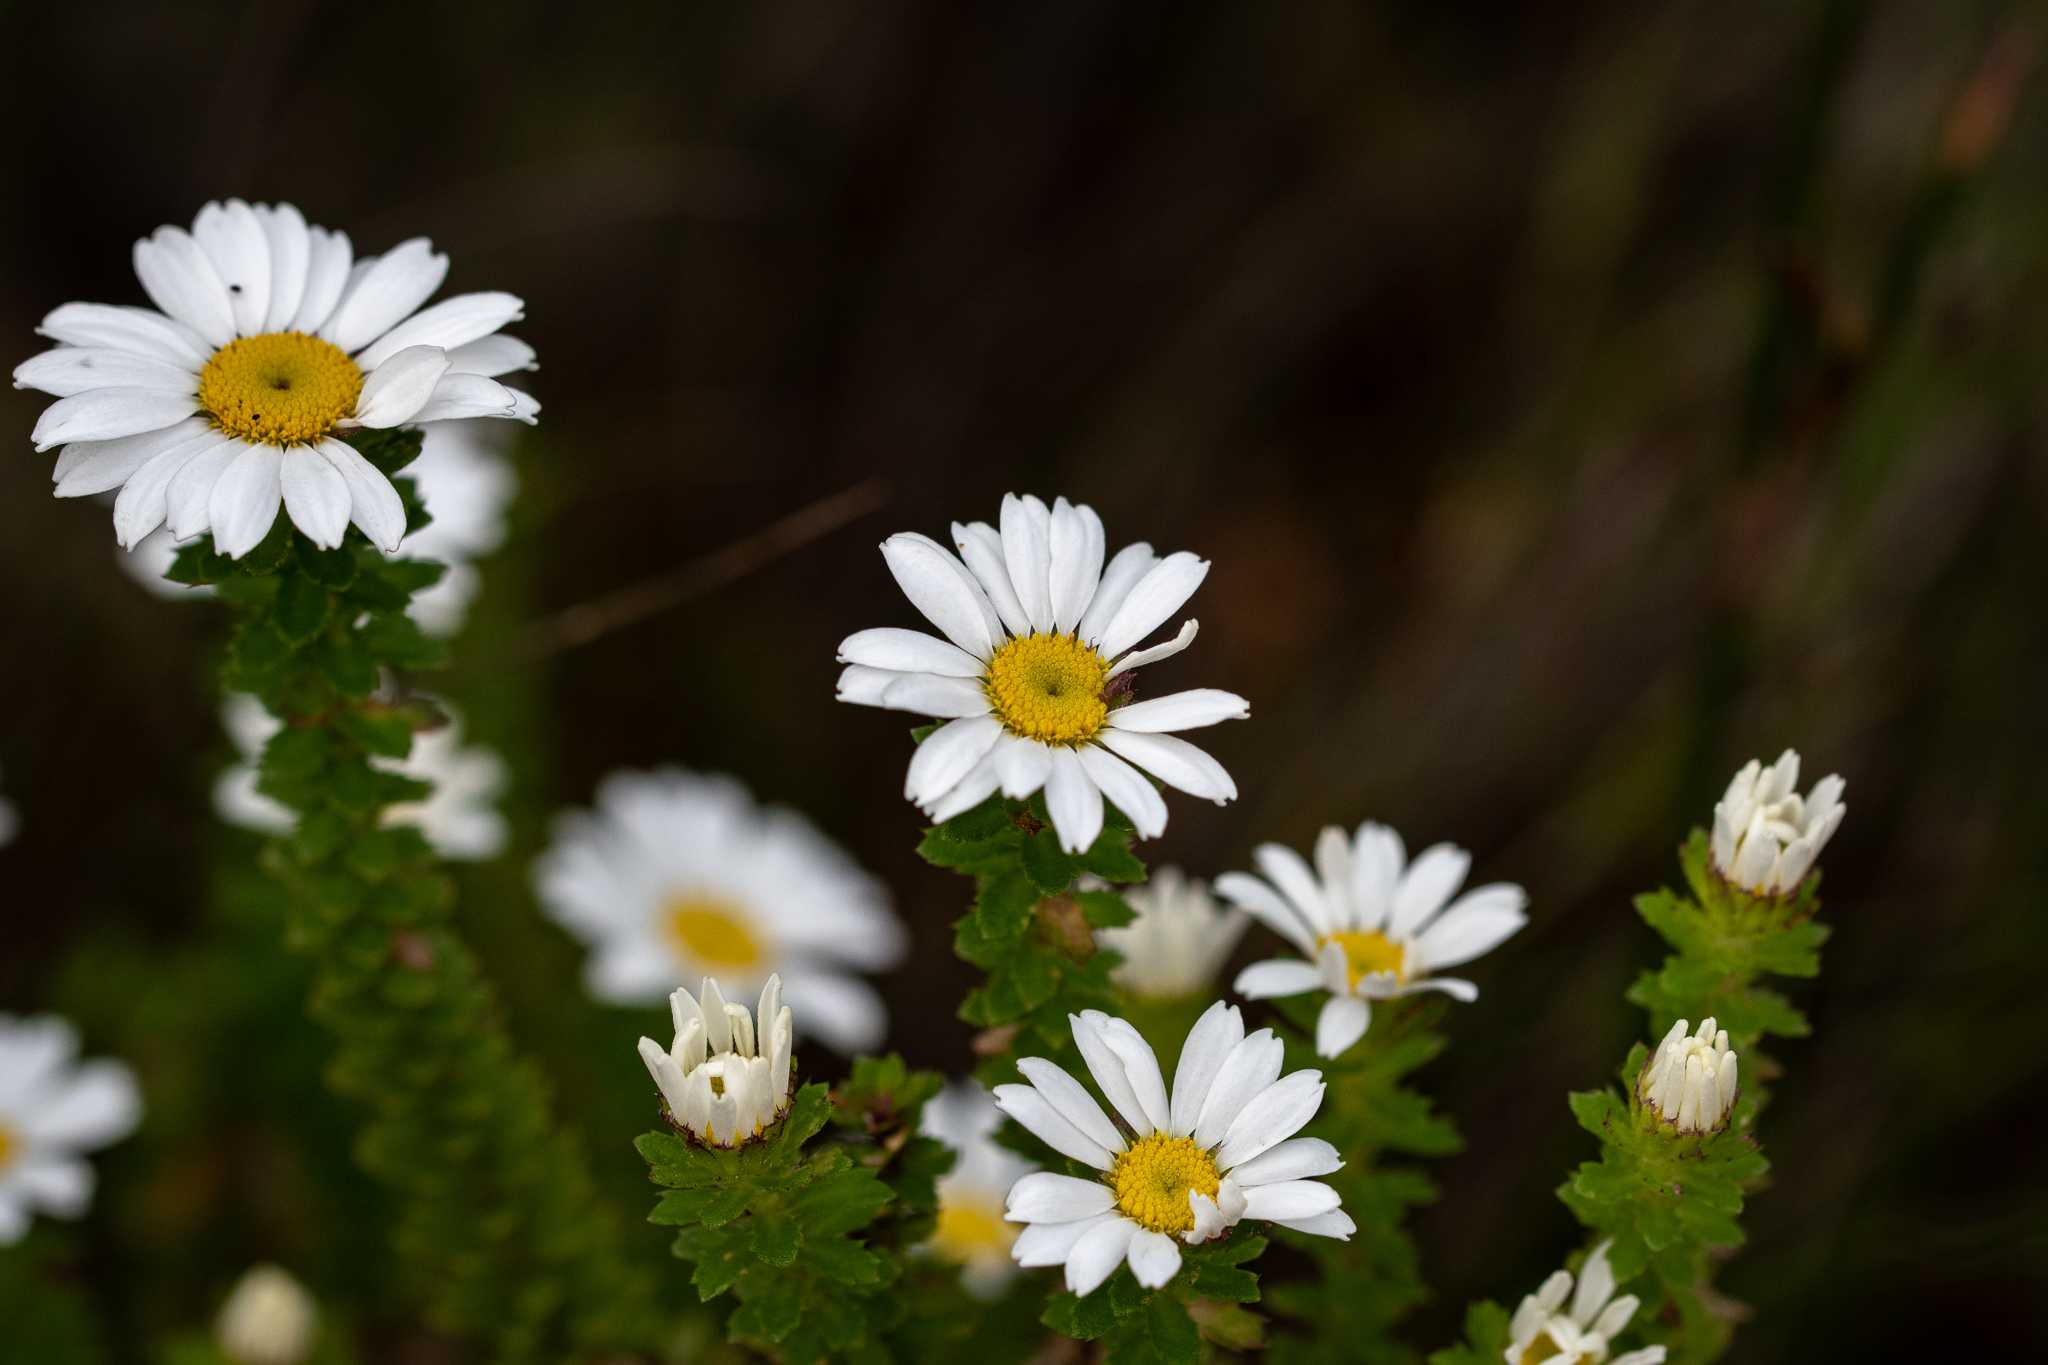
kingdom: Plantae
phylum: Tracheophyta
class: Magnoliopsida
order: Asterales
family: Asteraceae
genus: Osmitopsis
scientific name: Osmitopsis parvifolia
